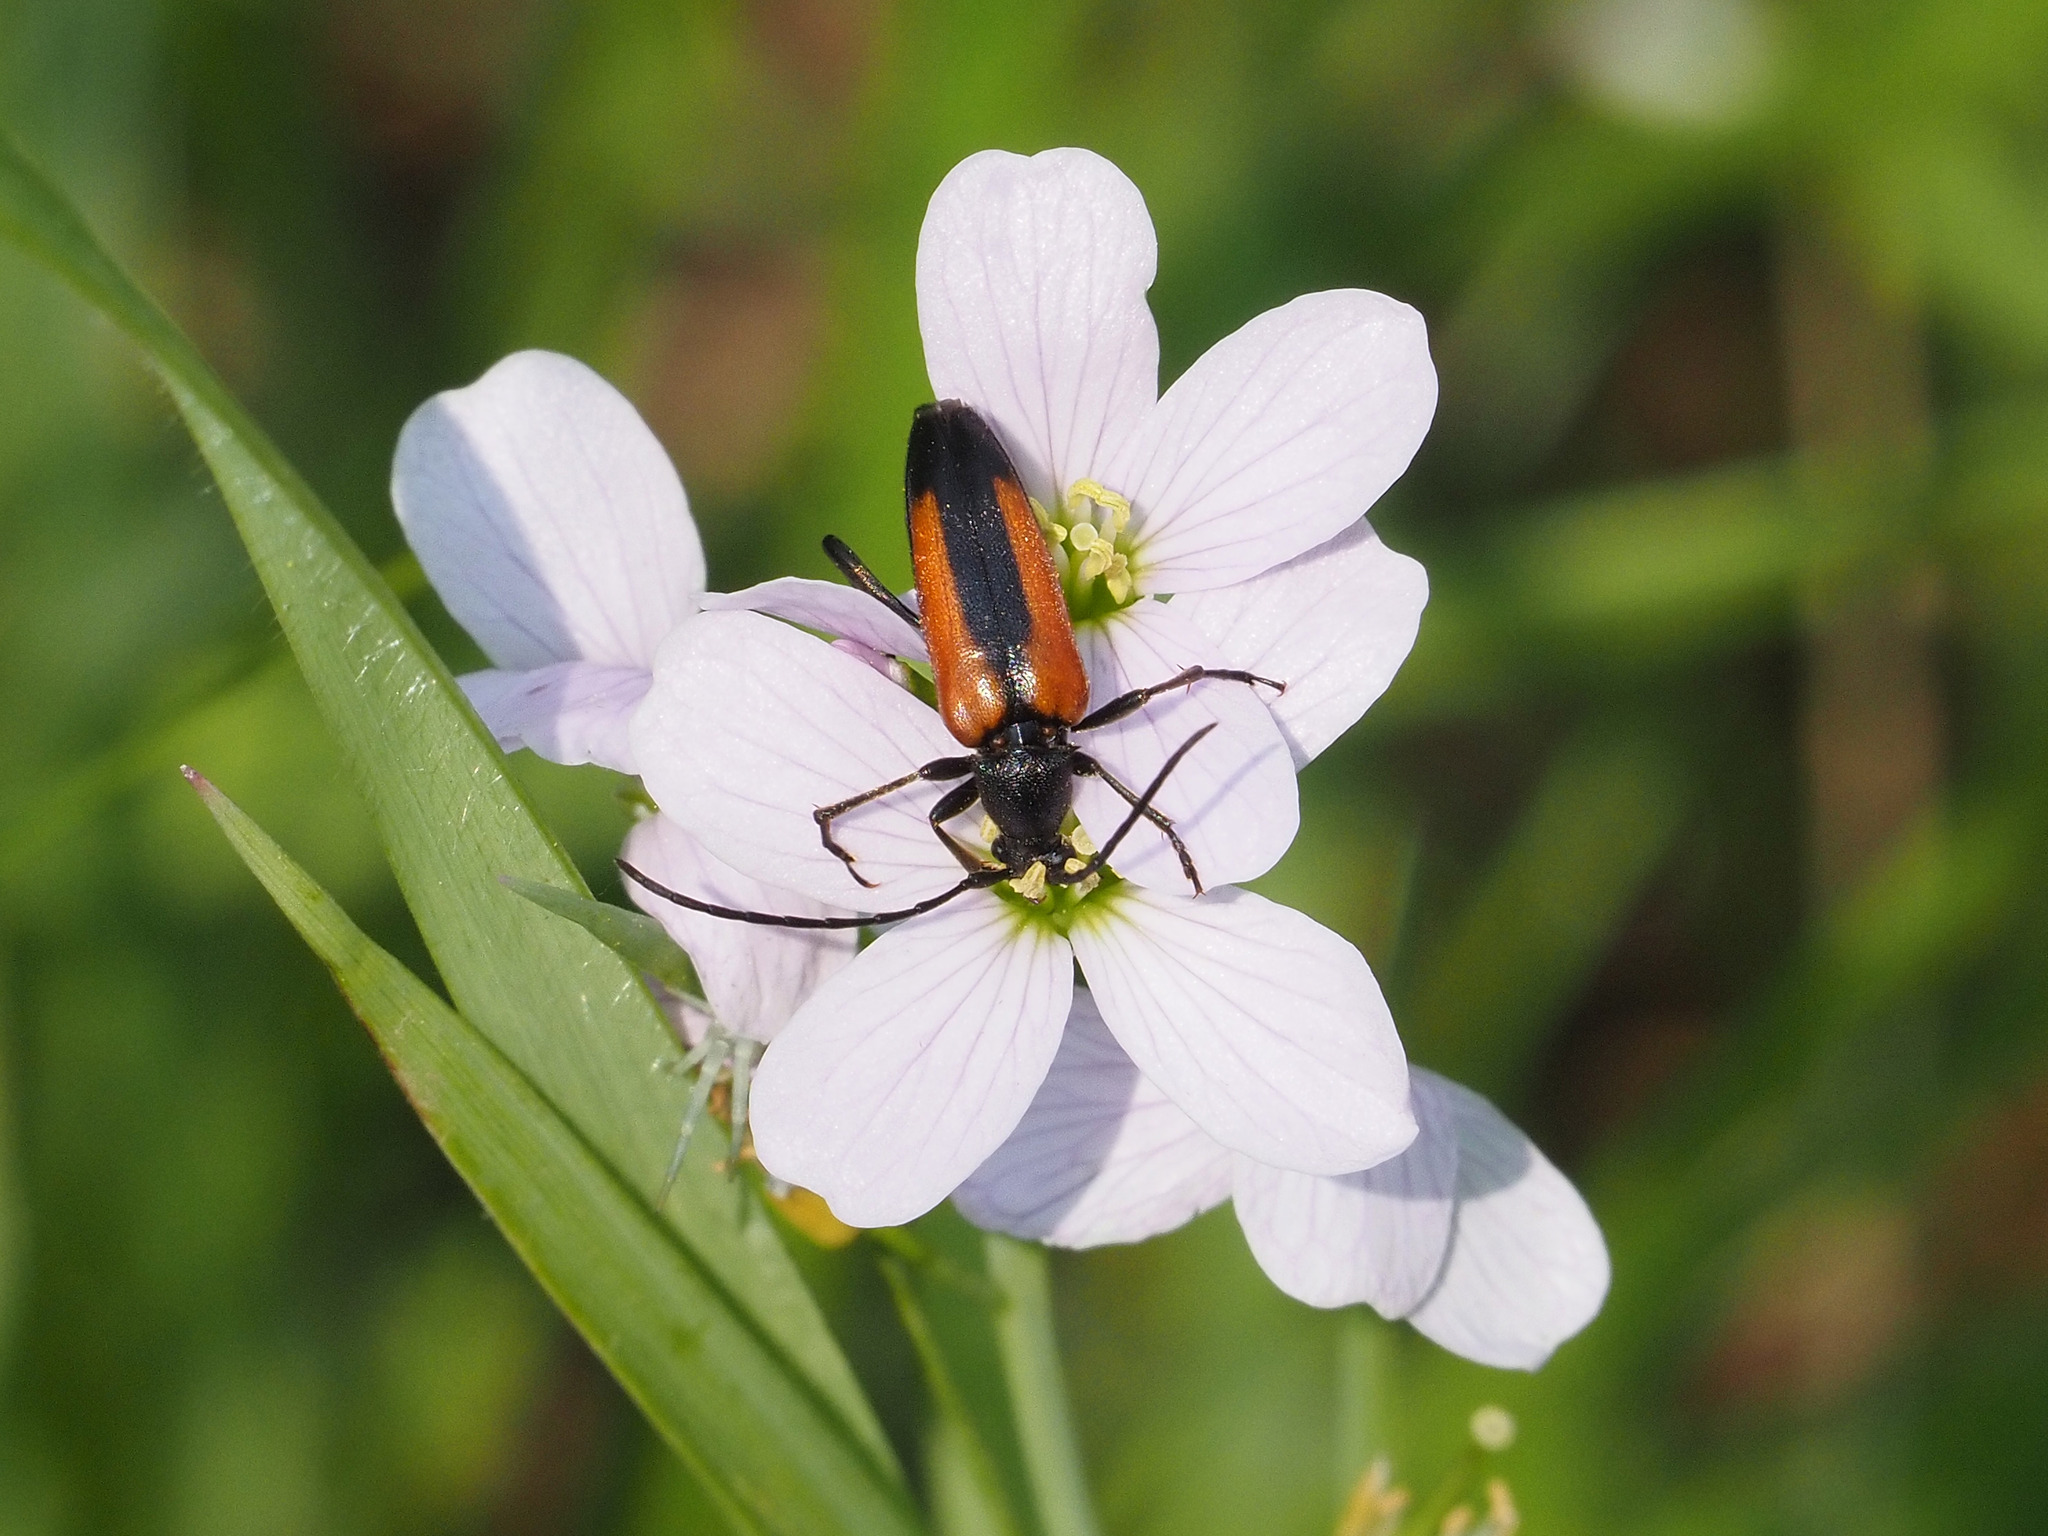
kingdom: Animalia
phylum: Arthropoda
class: Insecta
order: Coleoptera
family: Cerambycidae
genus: Stenurella
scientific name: Stenurella melanura
